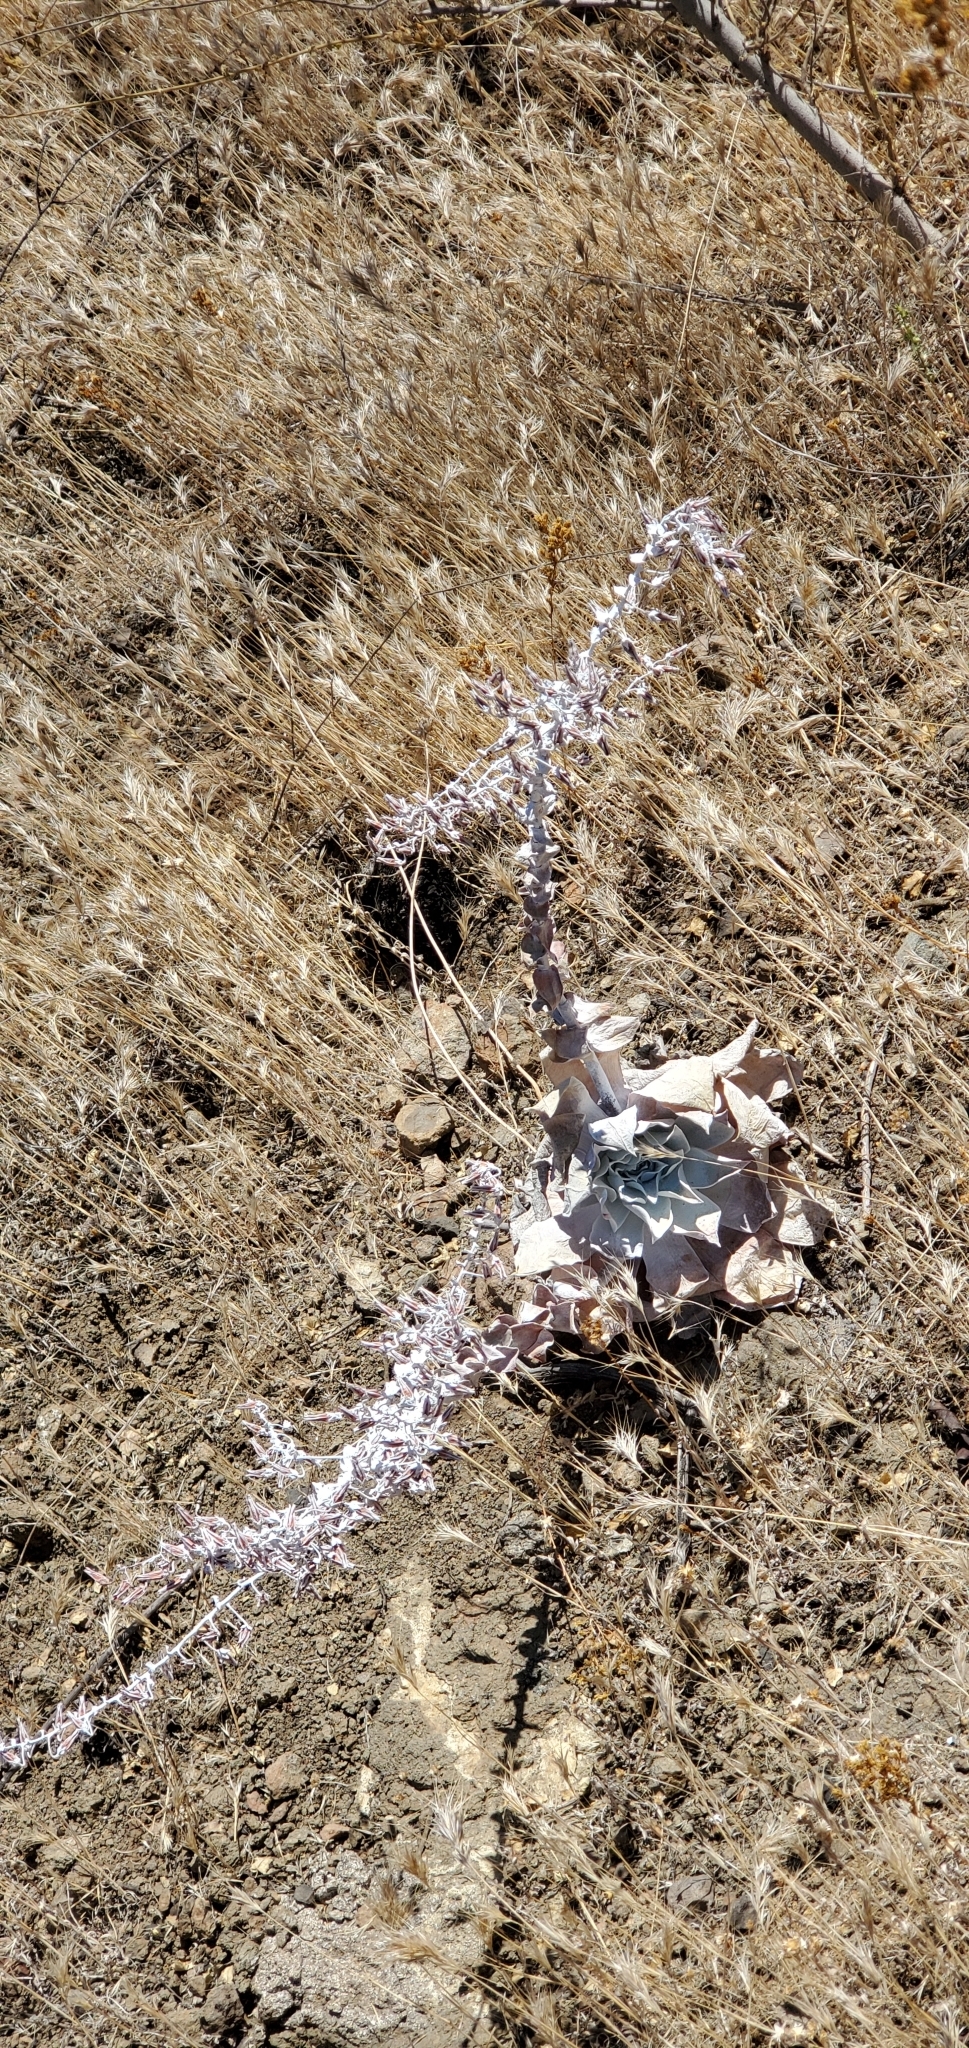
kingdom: Plantae
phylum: Tracheophyta
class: Magnoliopsida
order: Saxifragales
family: Crassulaceae
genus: Dudleya
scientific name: Dudleya pulverulenta
